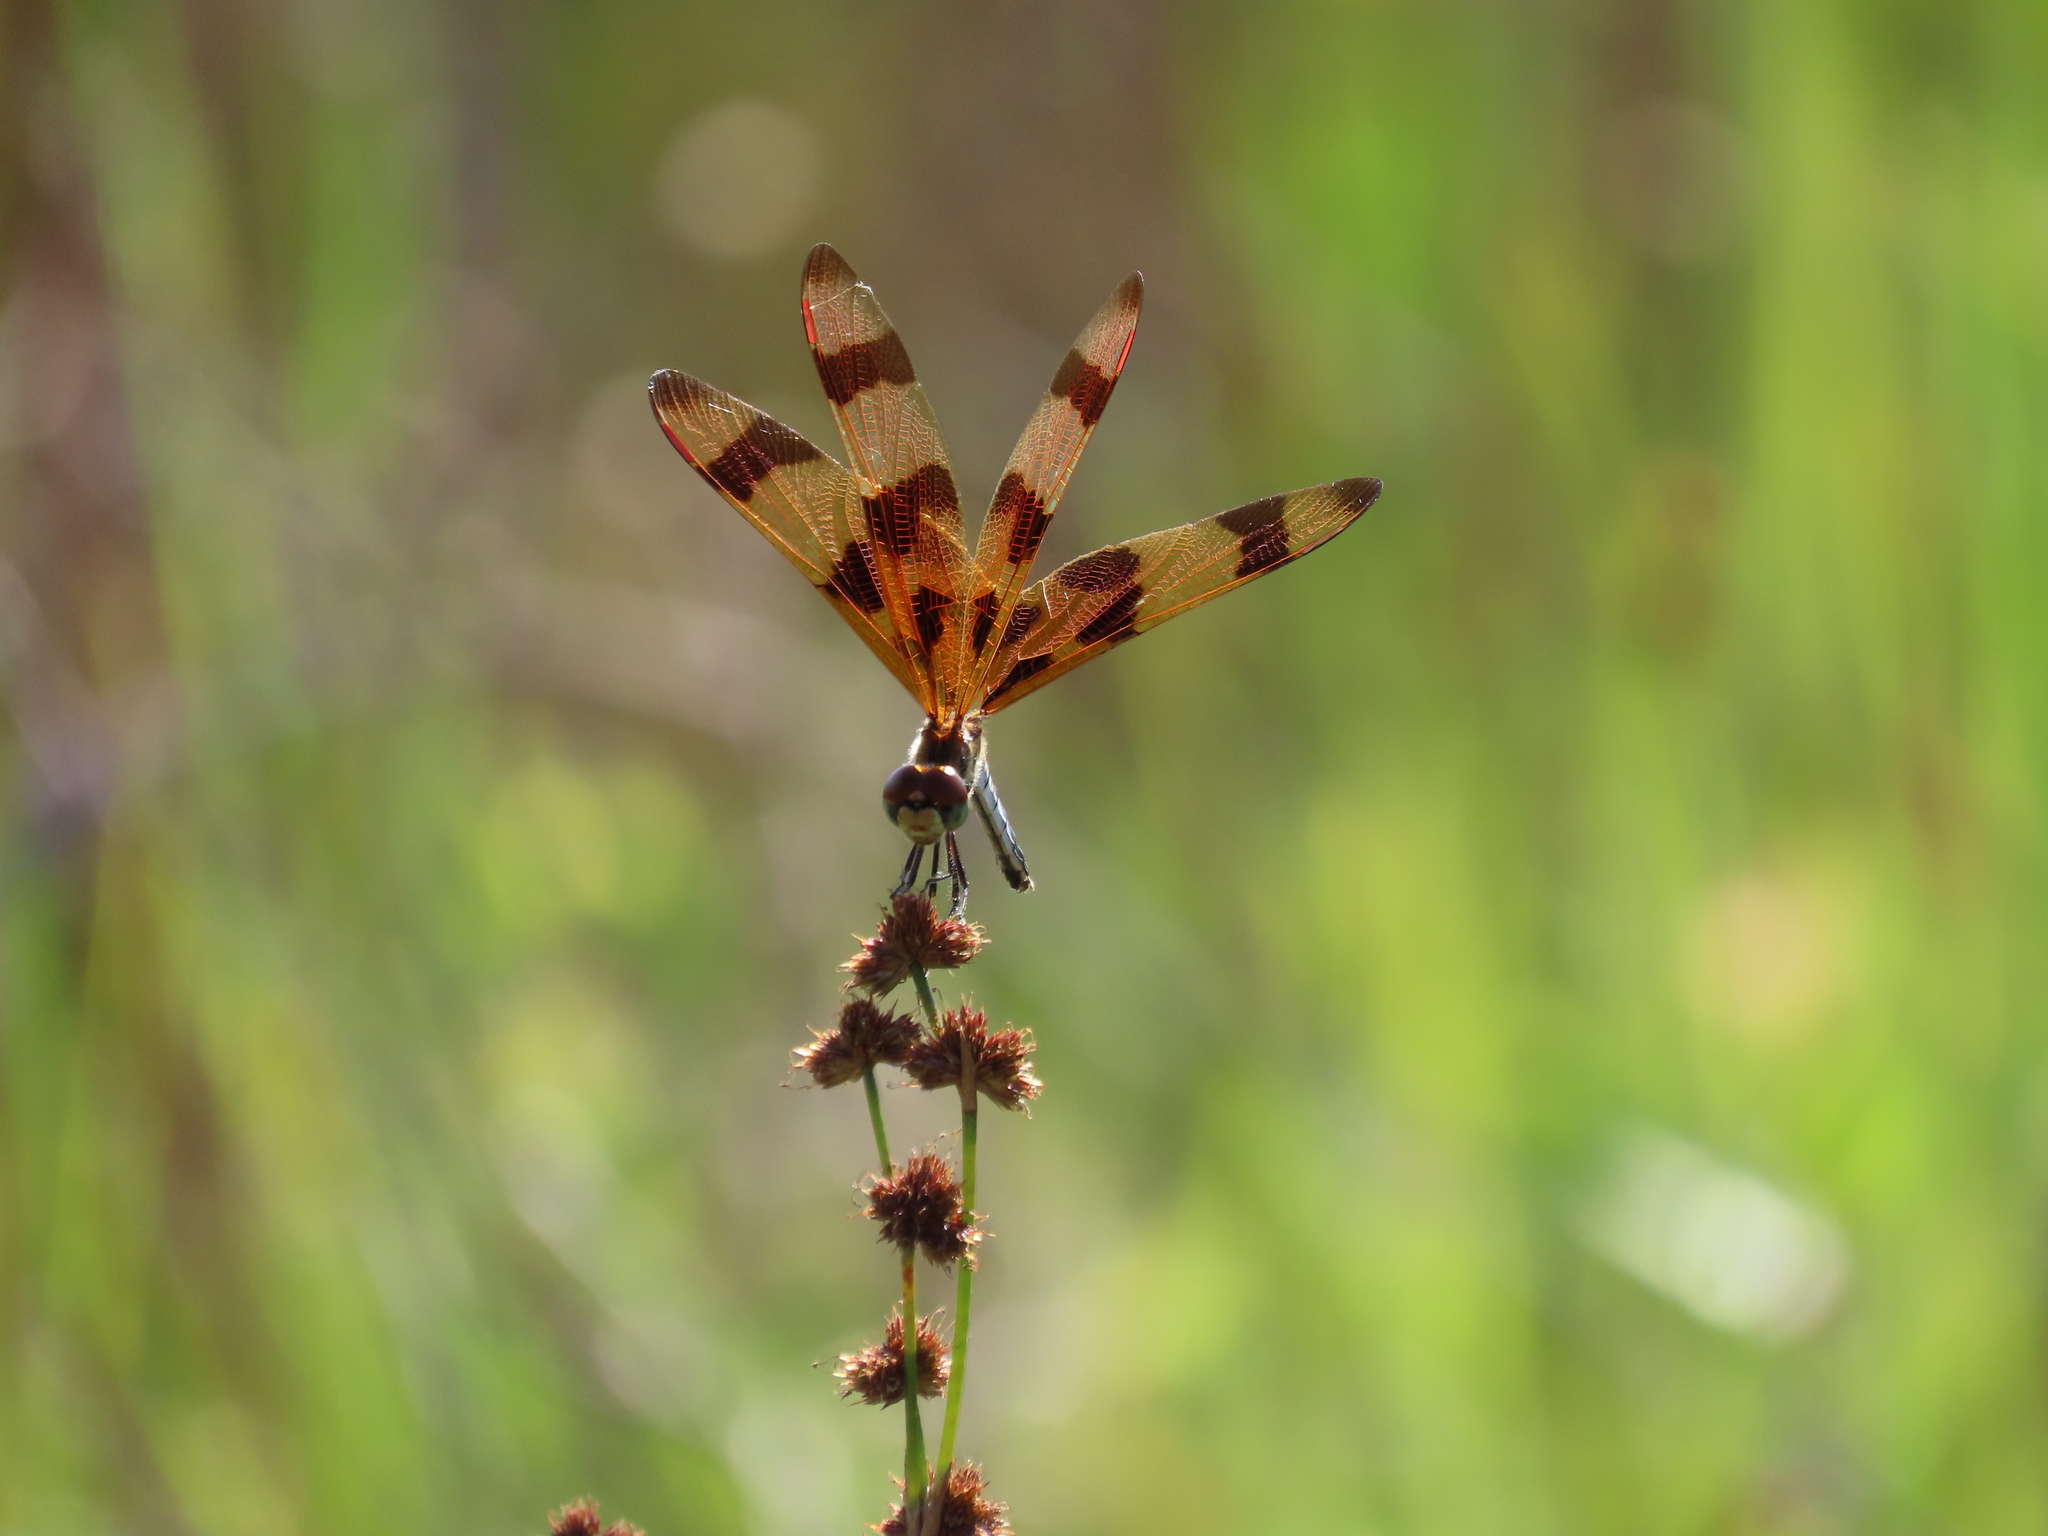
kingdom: Animalia
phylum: Arthropoda
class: Insecta
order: Odonata
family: Libellulidae
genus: Celithemis
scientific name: Celithemis eponina
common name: Halloween pennant
